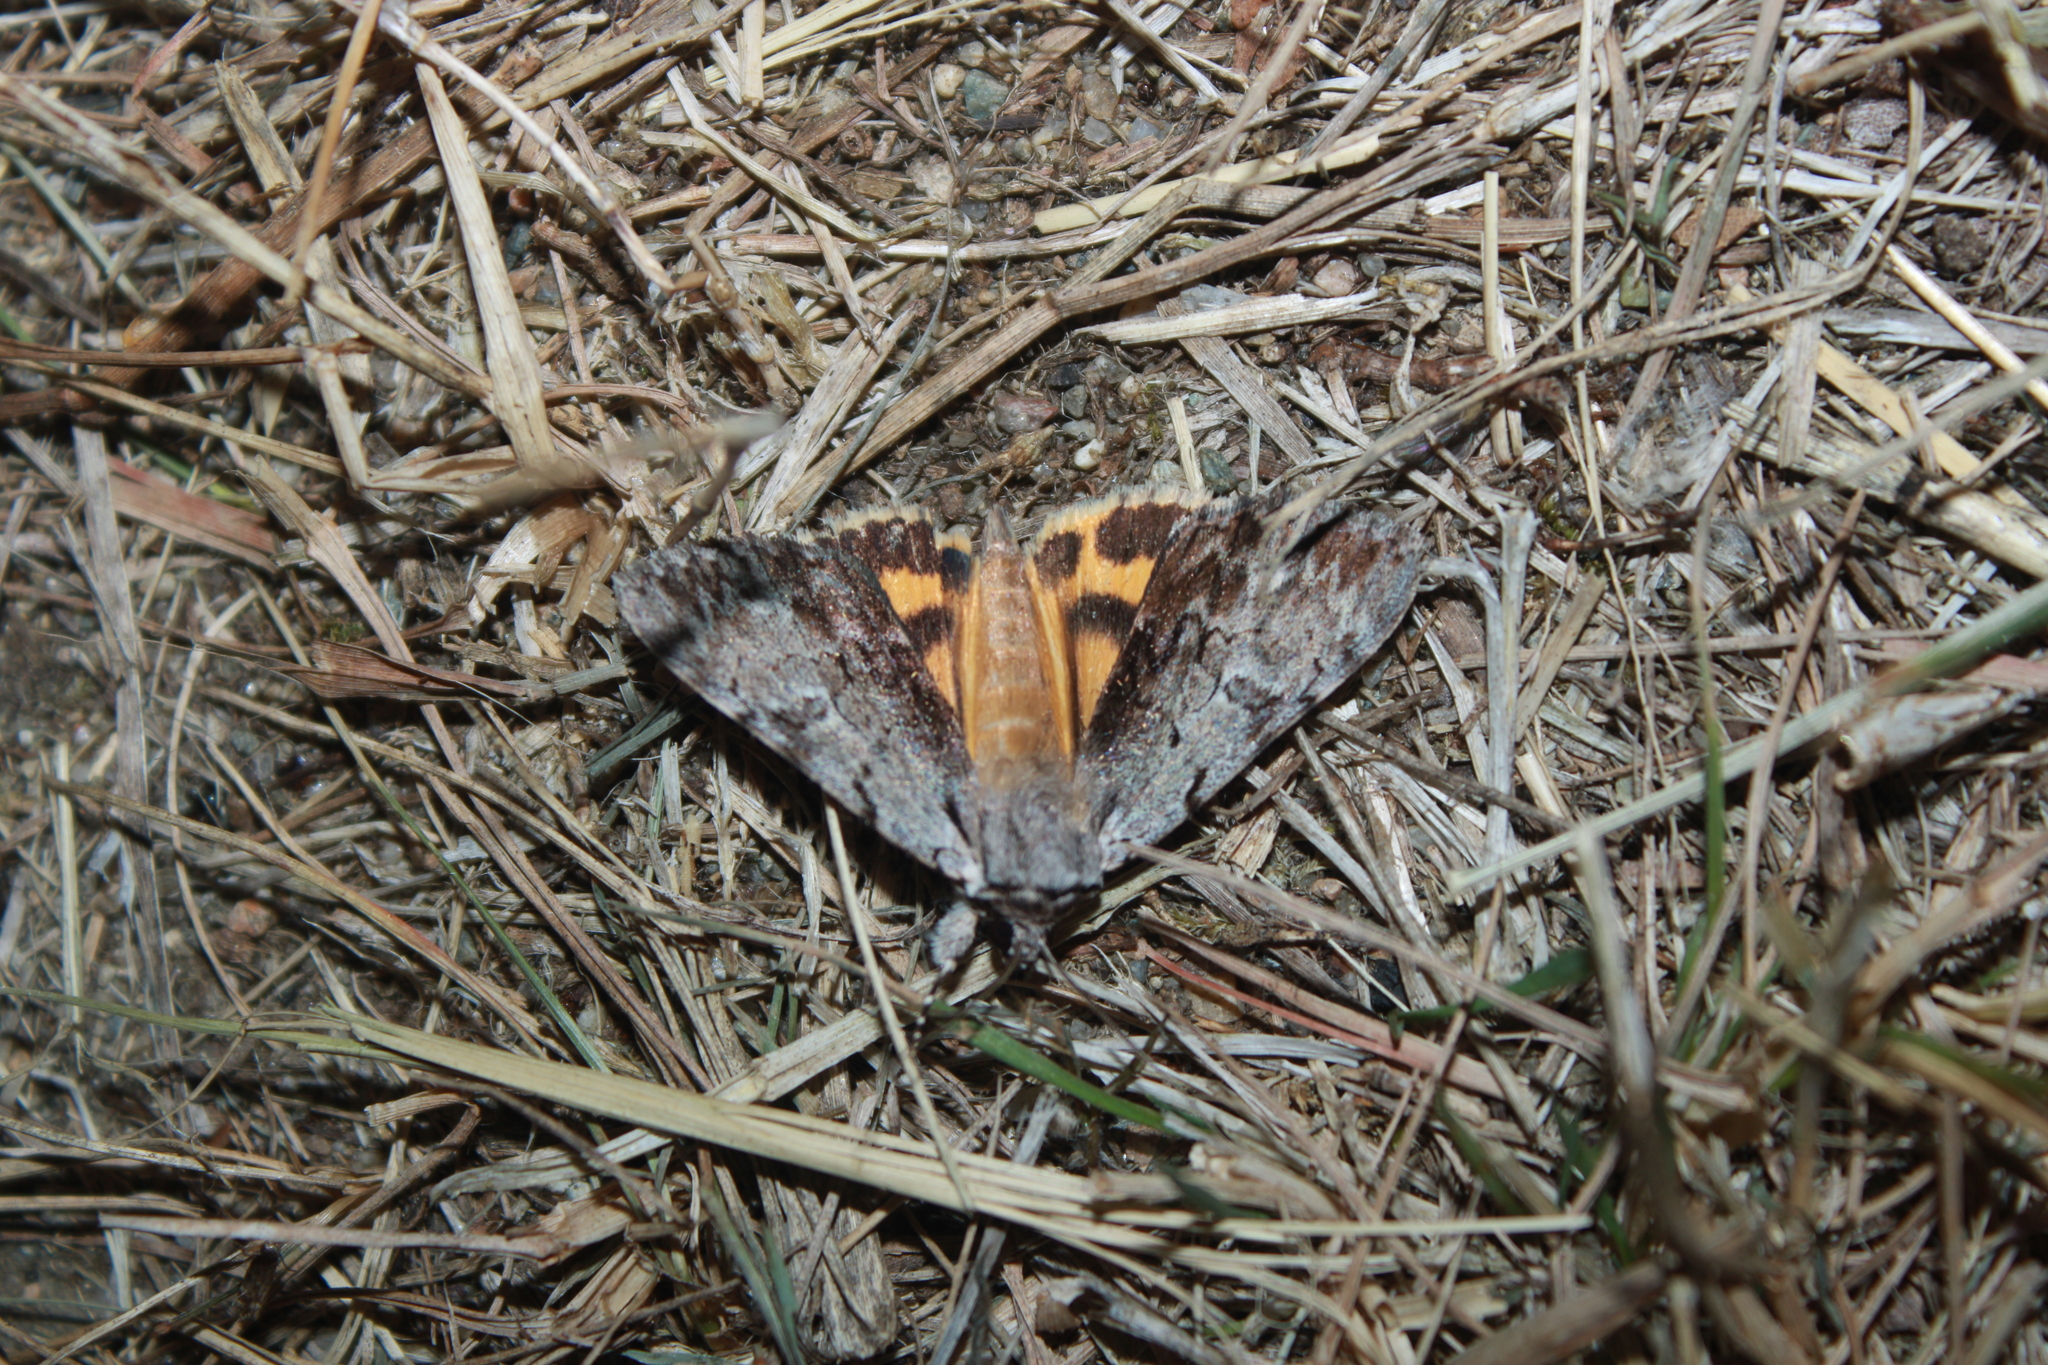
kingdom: Animalia
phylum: Arthropoda
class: Insecta
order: Lepidoptera
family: Erebidae
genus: Catocala
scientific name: Catocala gracilis
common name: Graceful underwing
